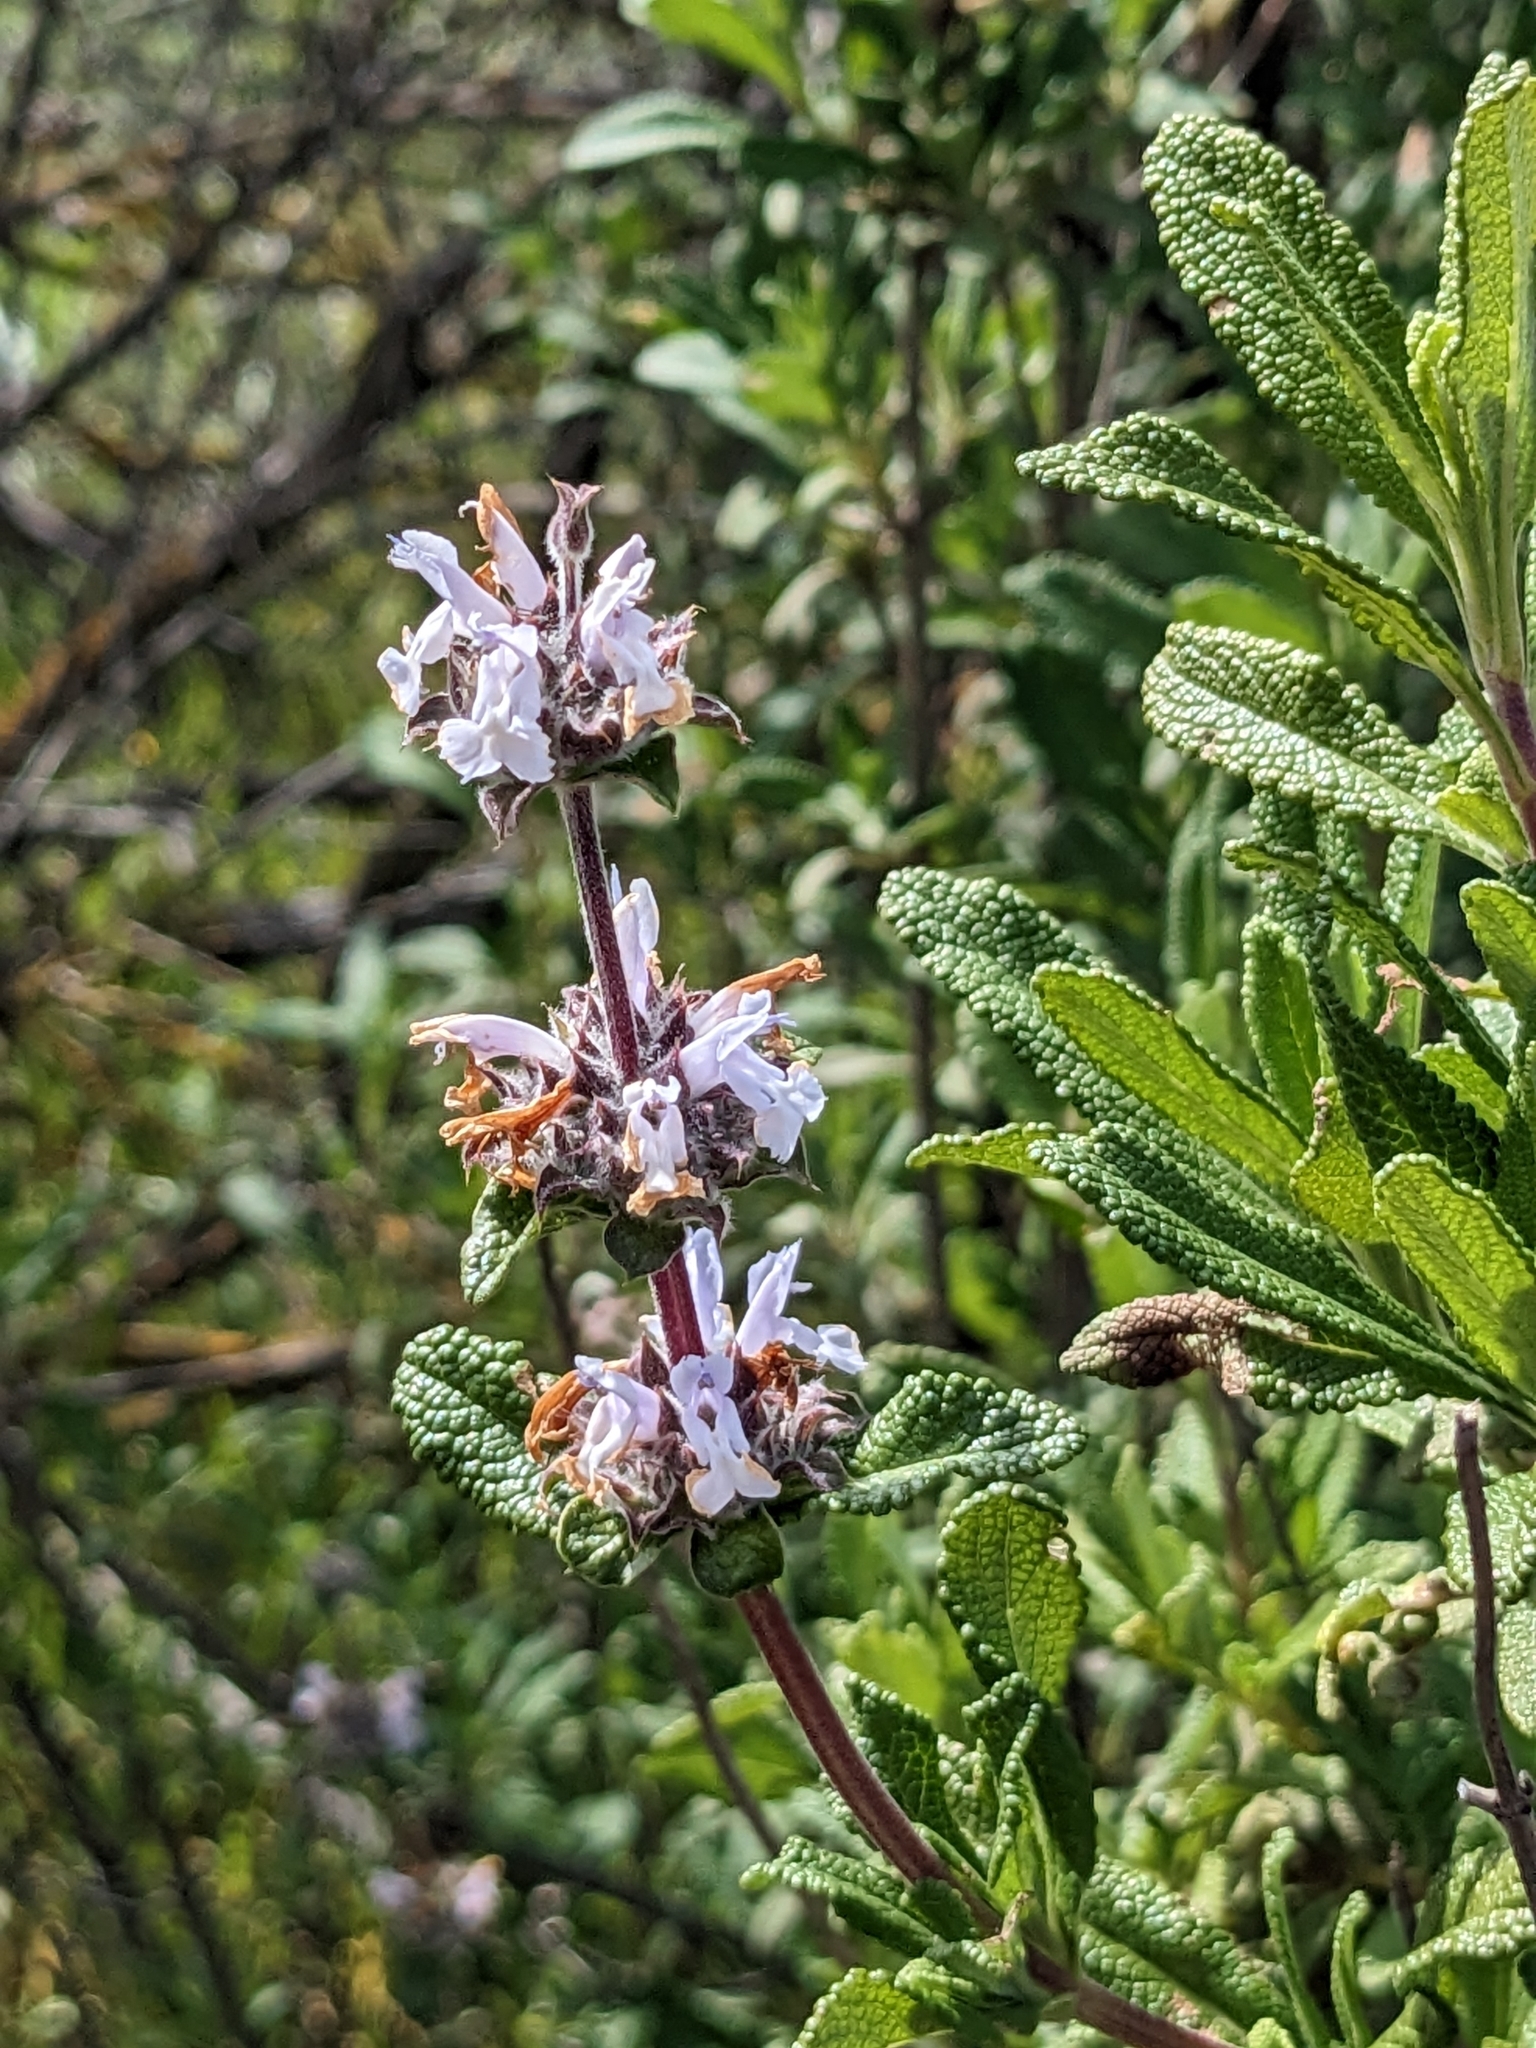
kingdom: Plantae
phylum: Tracheophyta
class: Magnoliopsida
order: Lamiales
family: Lamiaceae
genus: Salvia
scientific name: Salvia mellifera
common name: Black sage
